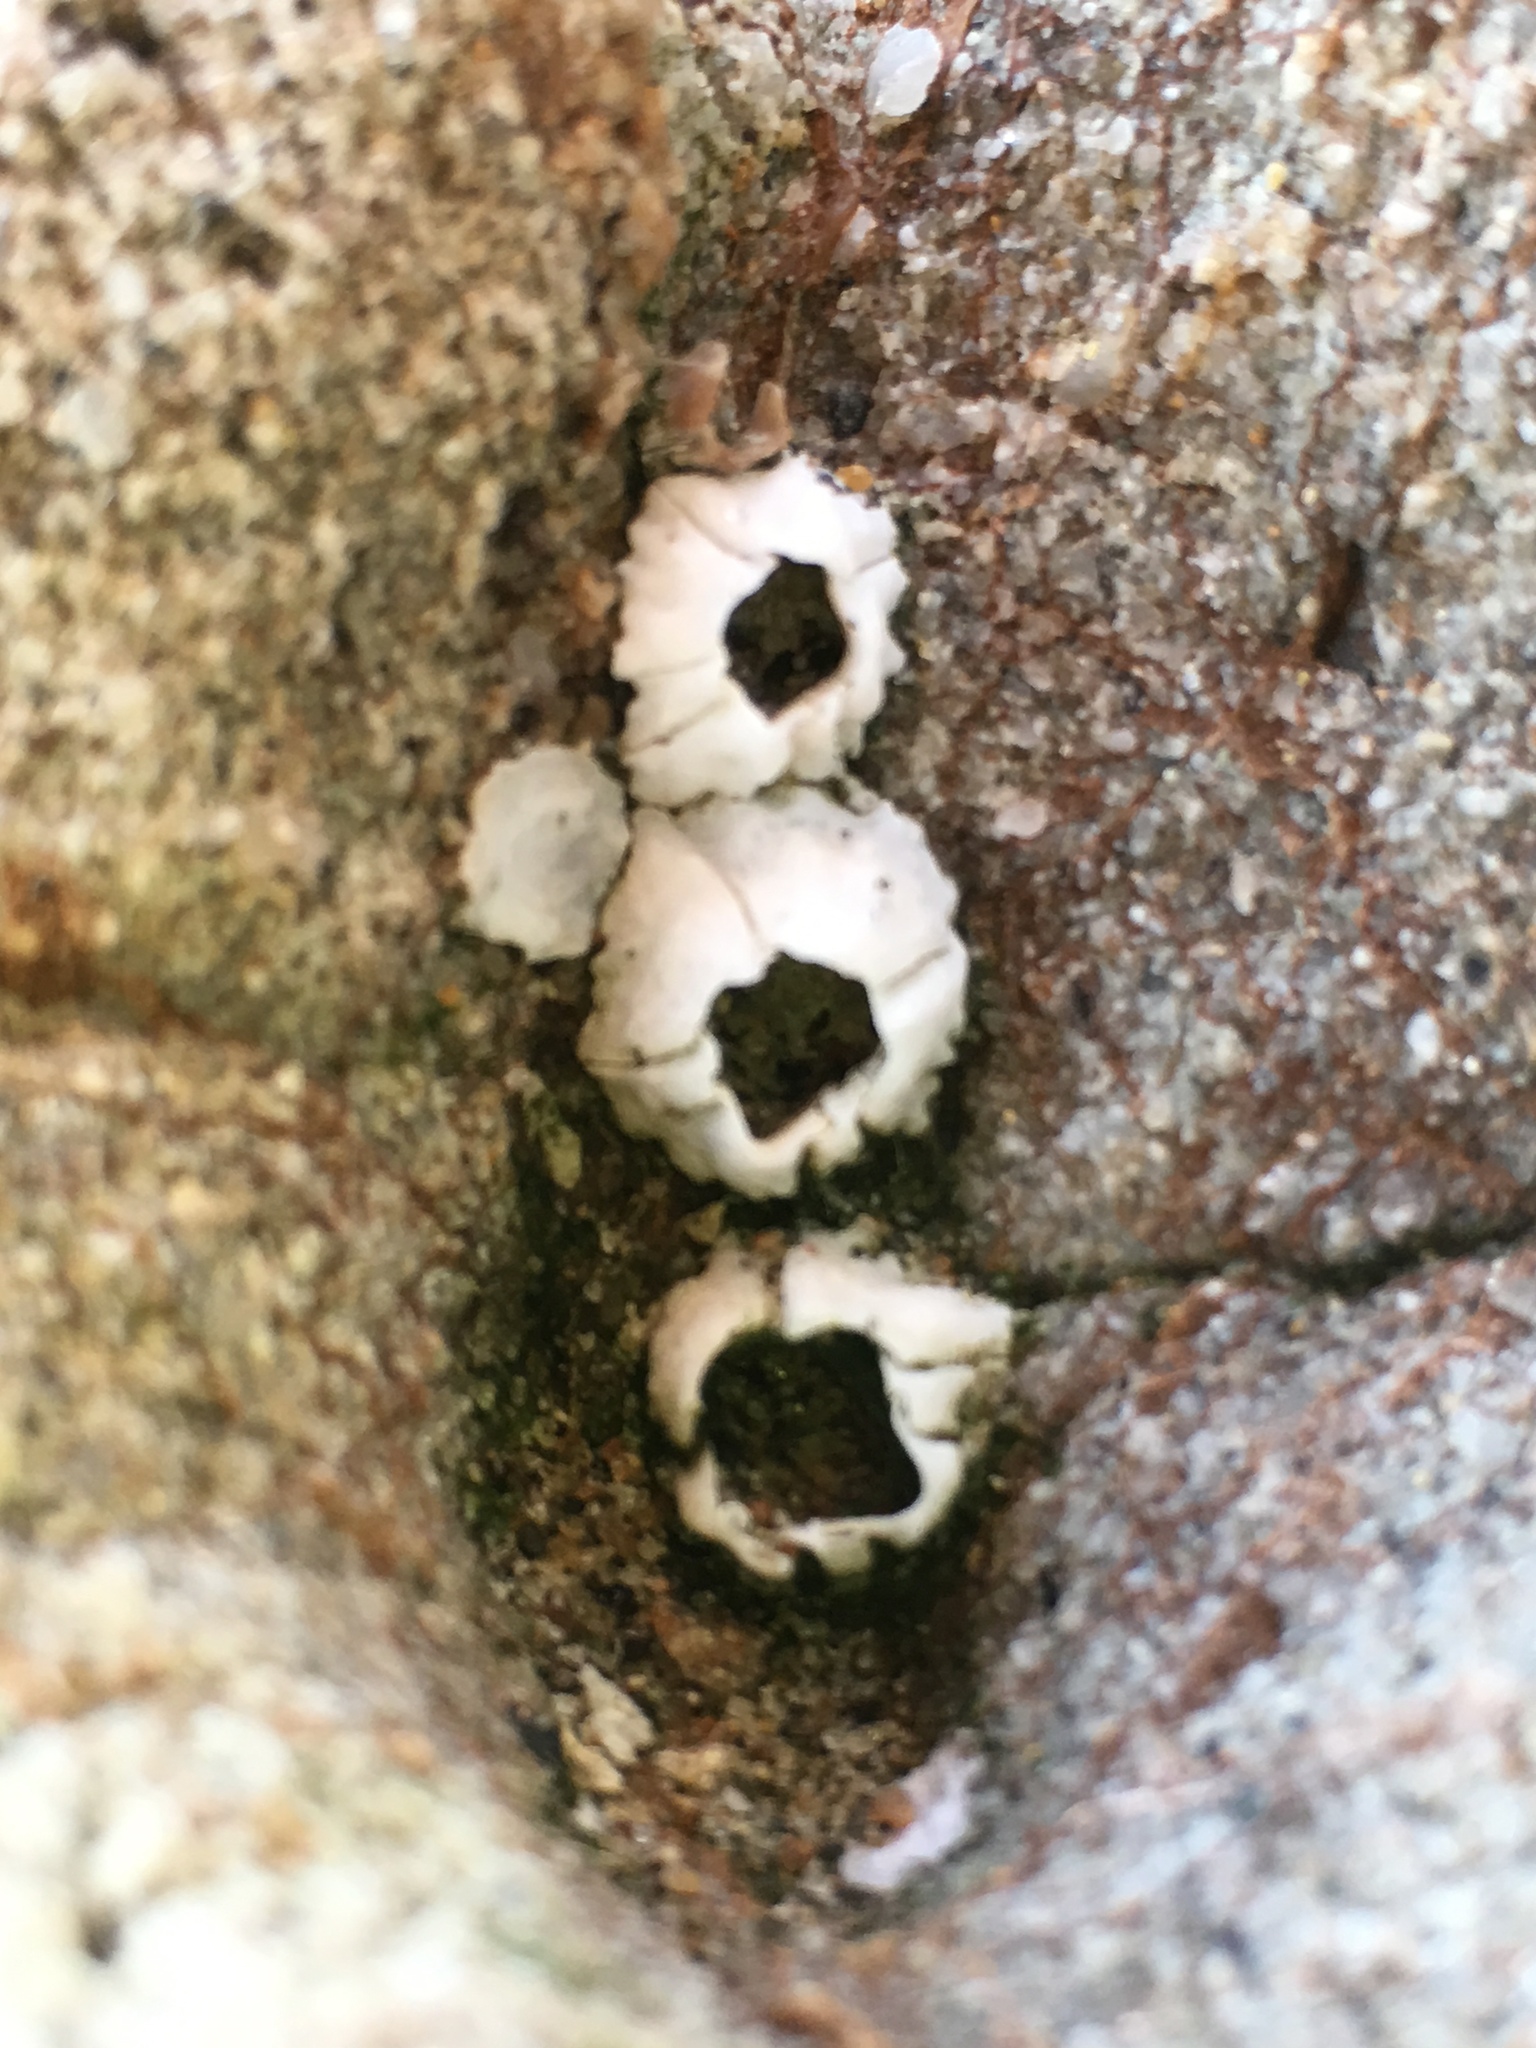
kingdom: Animalia
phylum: Arthropoda
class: Maxillopoda
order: Sessilia
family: Balanidae
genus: Balanus
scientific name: Balanus glandula
